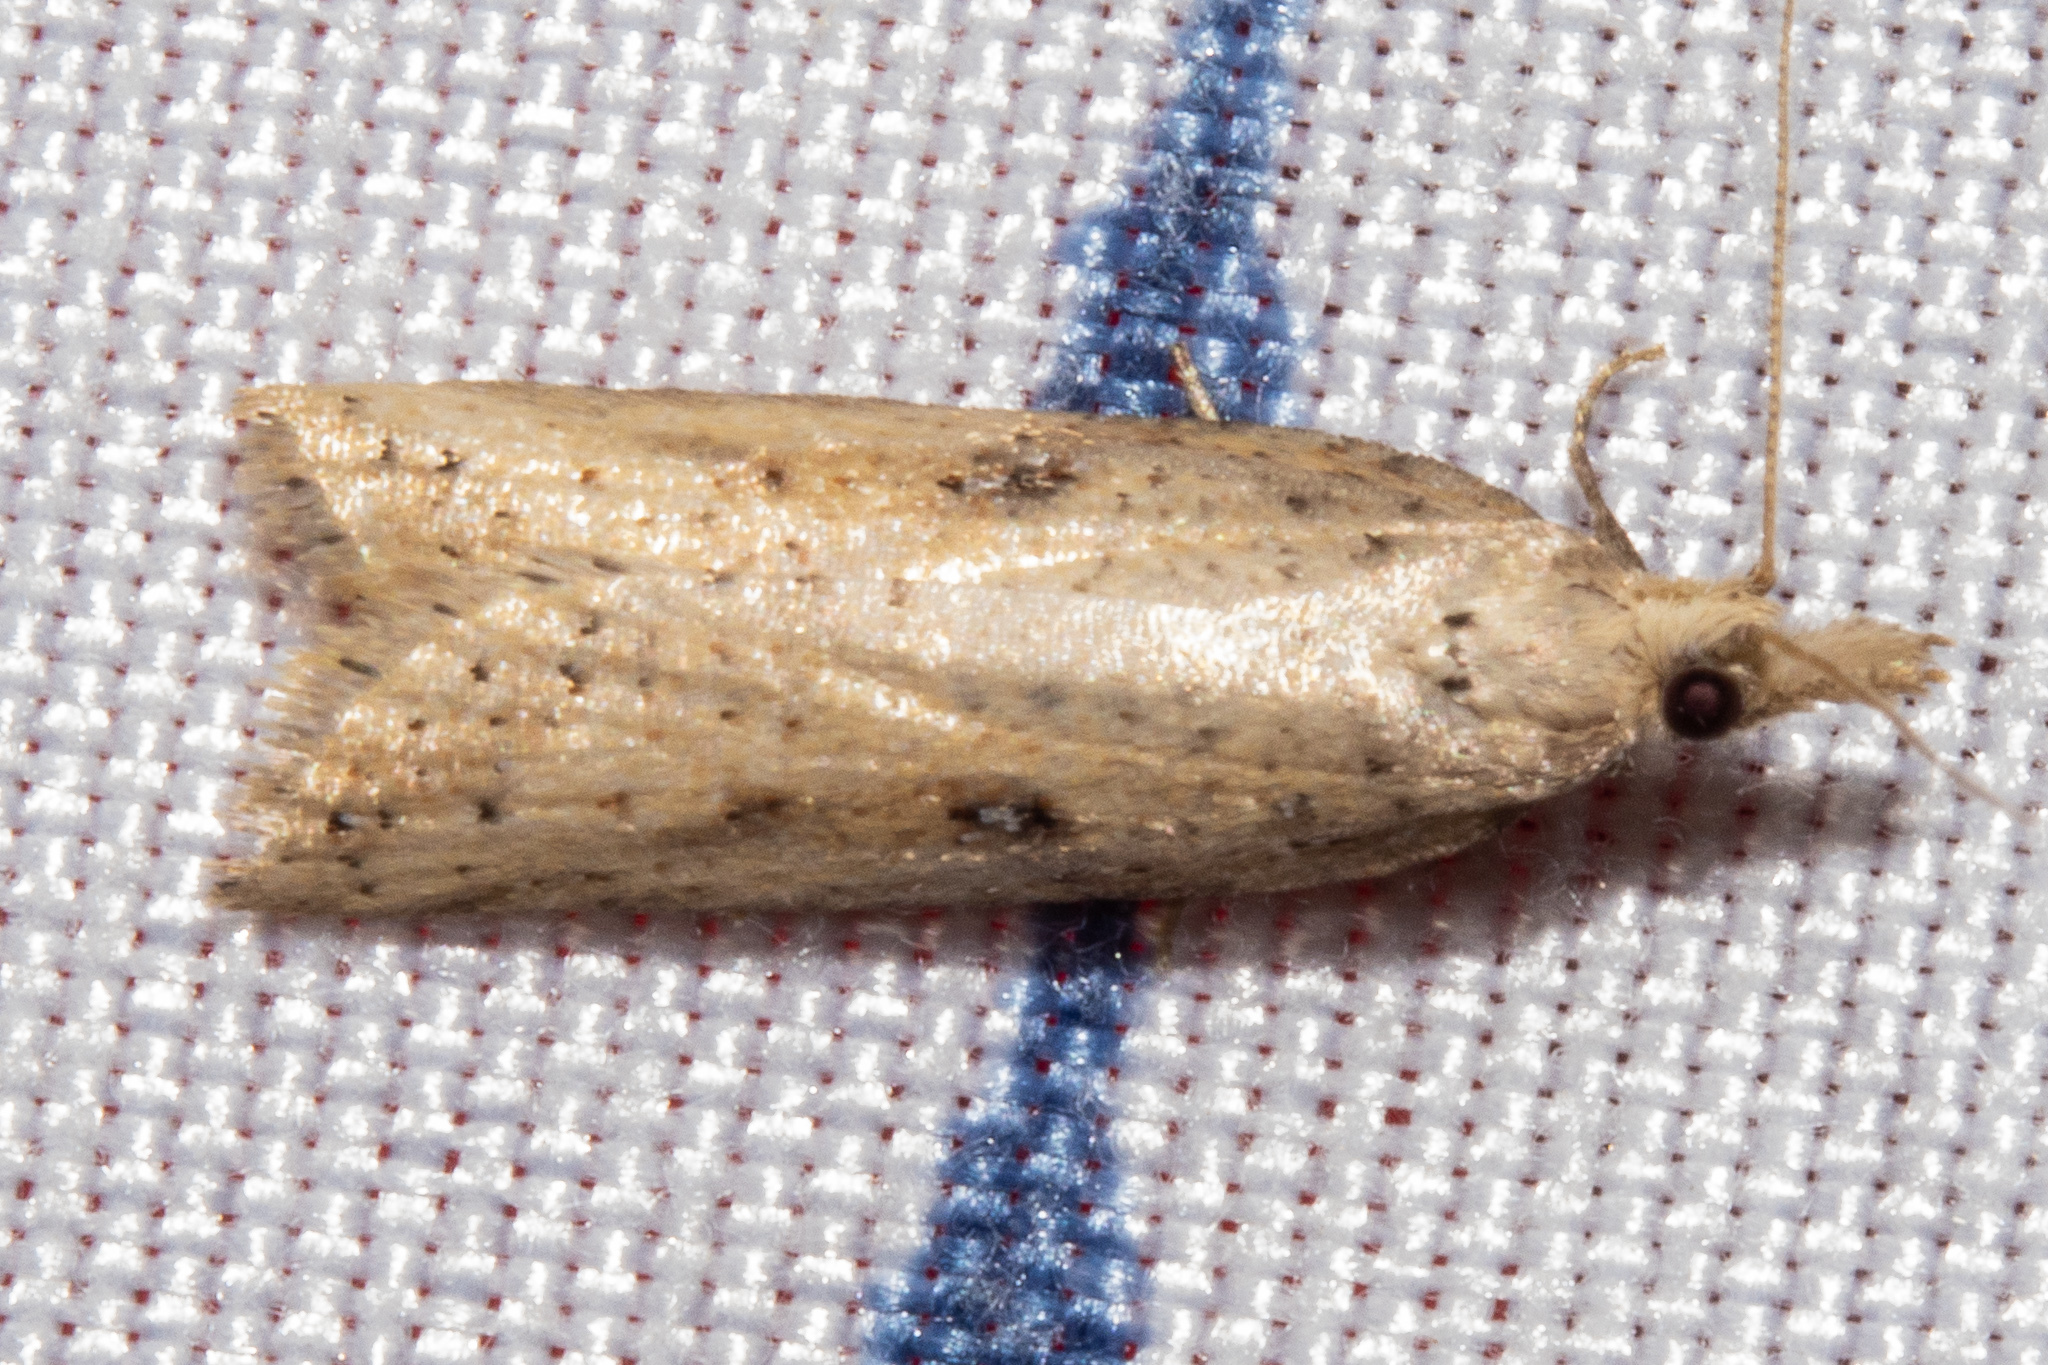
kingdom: Animalia
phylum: Arthropoda
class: Insecta
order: Lepidoptera
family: Tortricidae
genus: Apoctena
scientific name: Apoctena persecta
